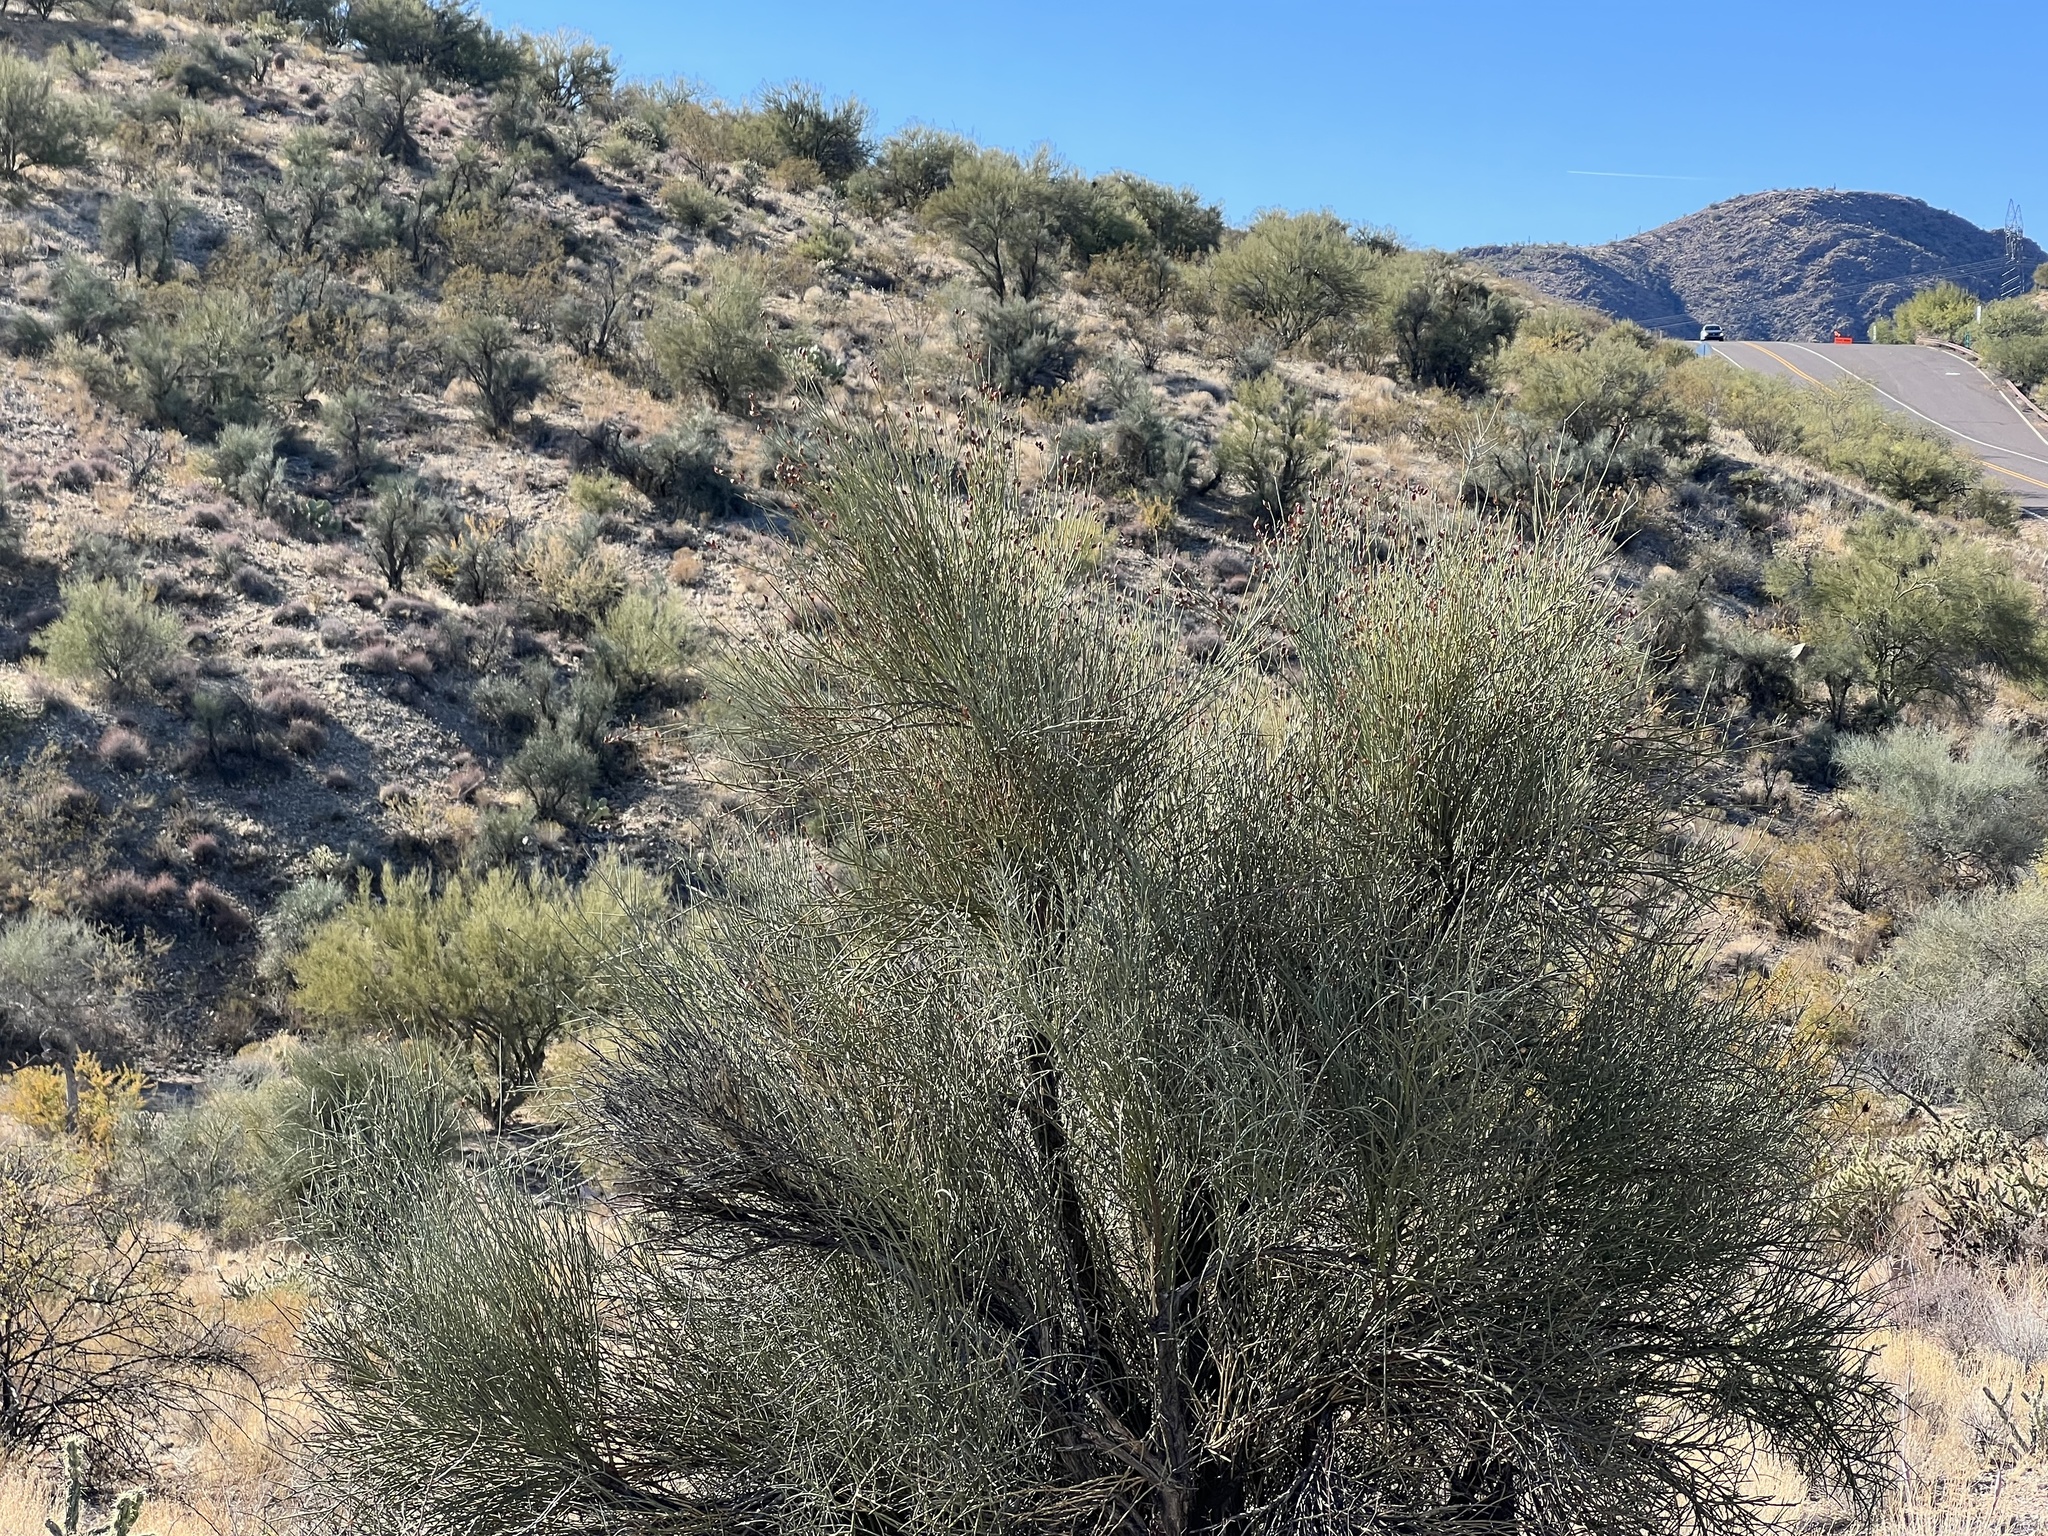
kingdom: Plantae
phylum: Tracheophyta
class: Magnoliopsida
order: Celastrales
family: Celastraceae
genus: Canotia
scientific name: Canotia holacantha
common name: Crucifixion thorns
